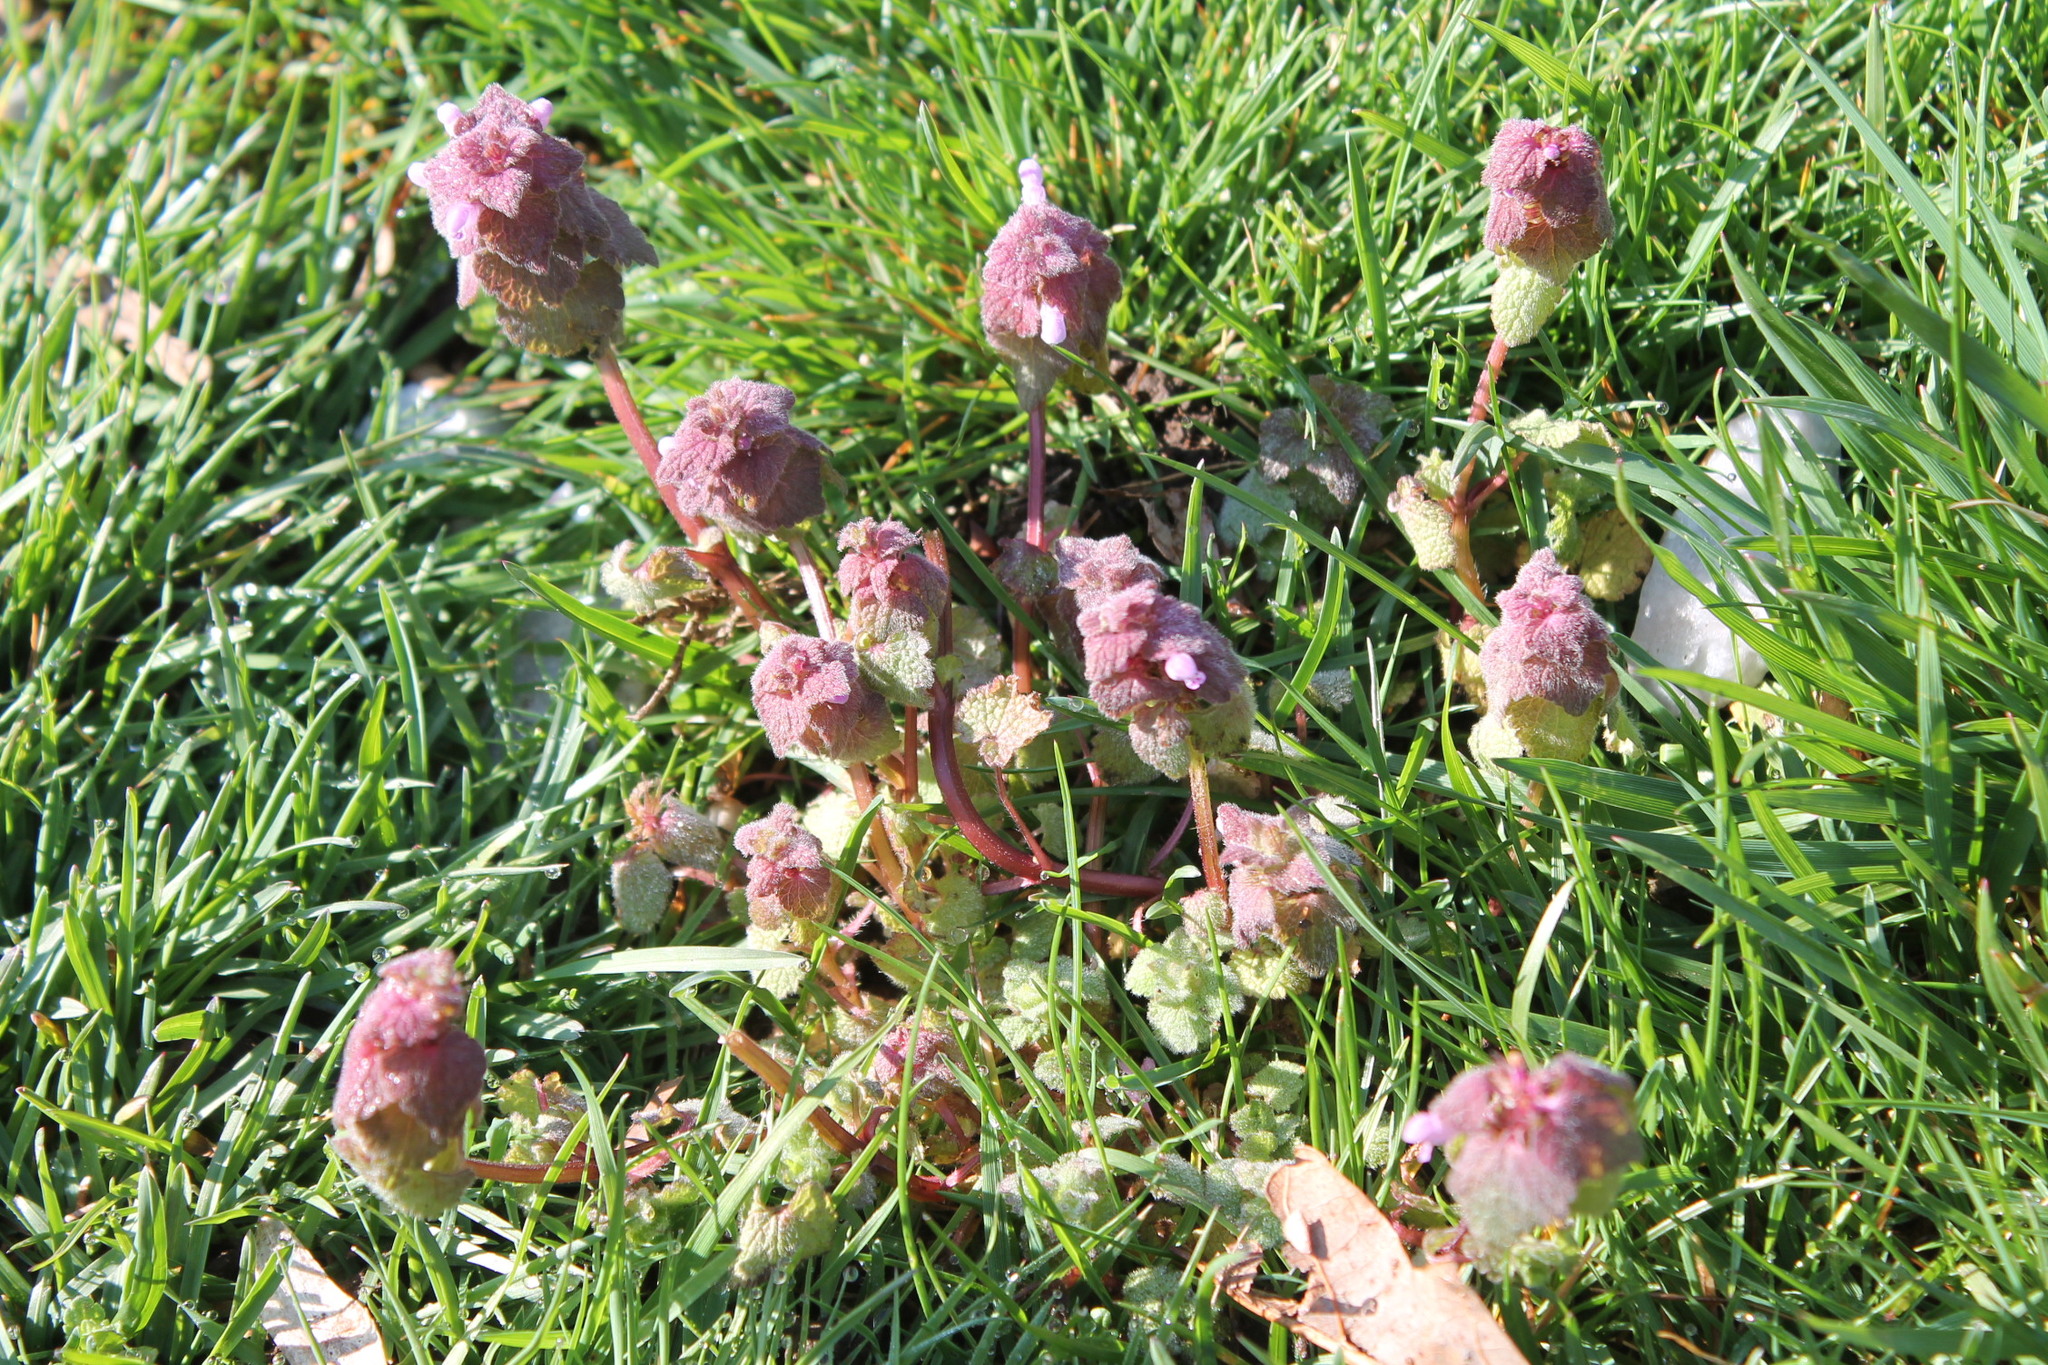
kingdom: Plantae
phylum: Tracheophyta
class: Magnoliopsida
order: Lamiales
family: Lamiaceae
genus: Lamium
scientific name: Lamium purpureum
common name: Red dead-nettle
